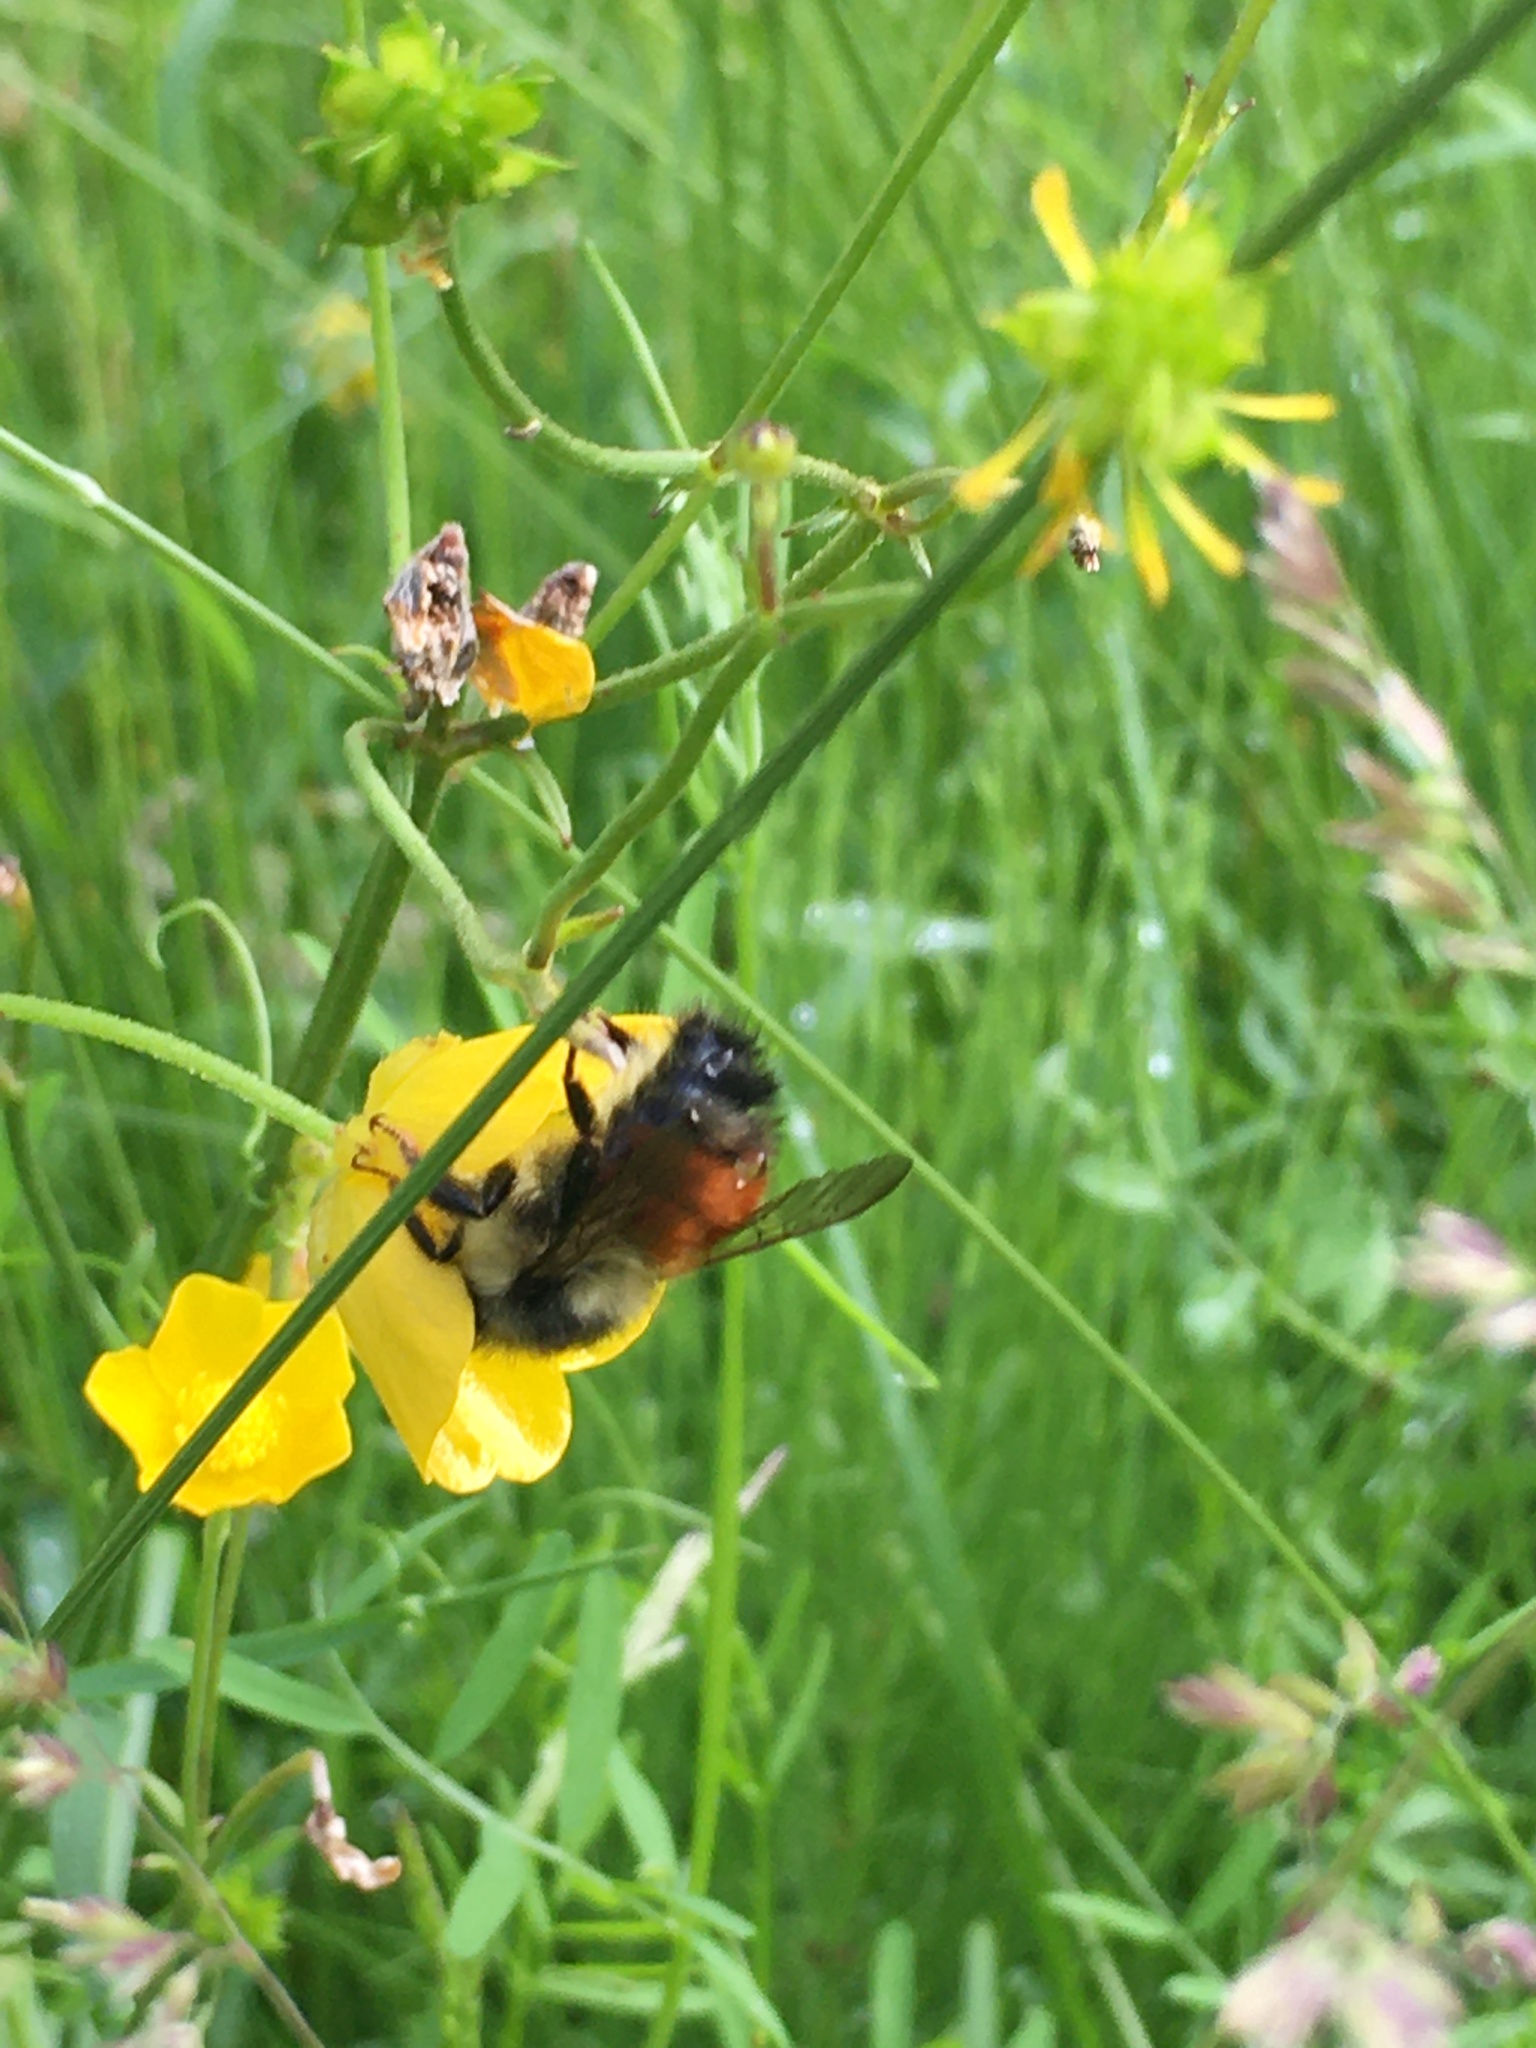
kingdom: Animalia
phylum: Arthropoda
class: Insecta
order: Hymenoptera
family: Apidae
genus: Bombus
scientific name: Bombus melanopygus
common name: Black tail bumble bee
